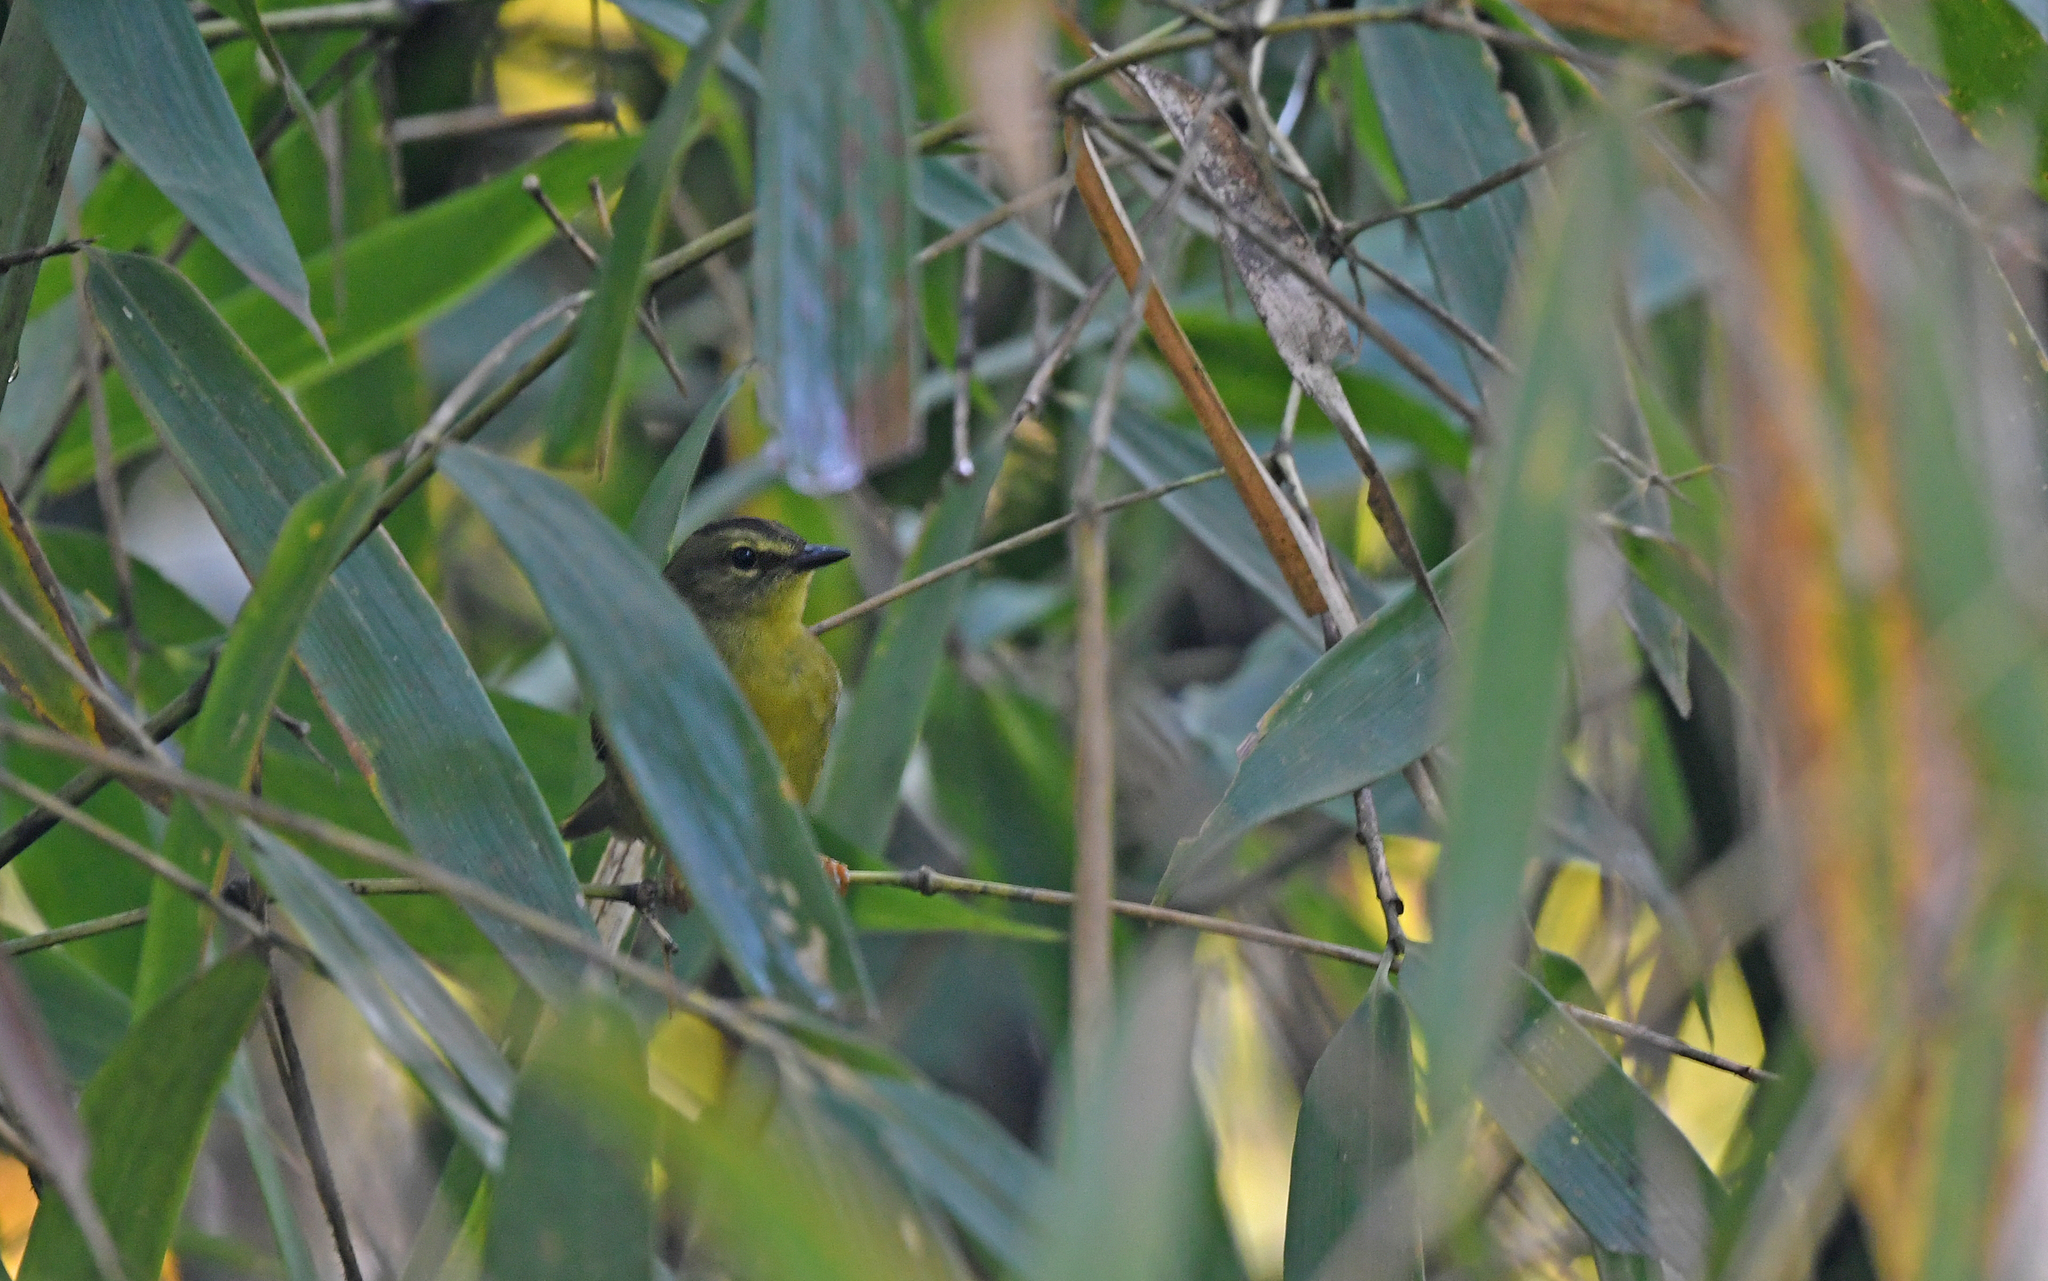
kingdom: Animalia
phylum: Chordata
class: Aves
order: Passeriformes
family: Parulidae
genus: Myiothlypis
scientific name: Myiothlypis bivittata
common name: Two-banded warbler
